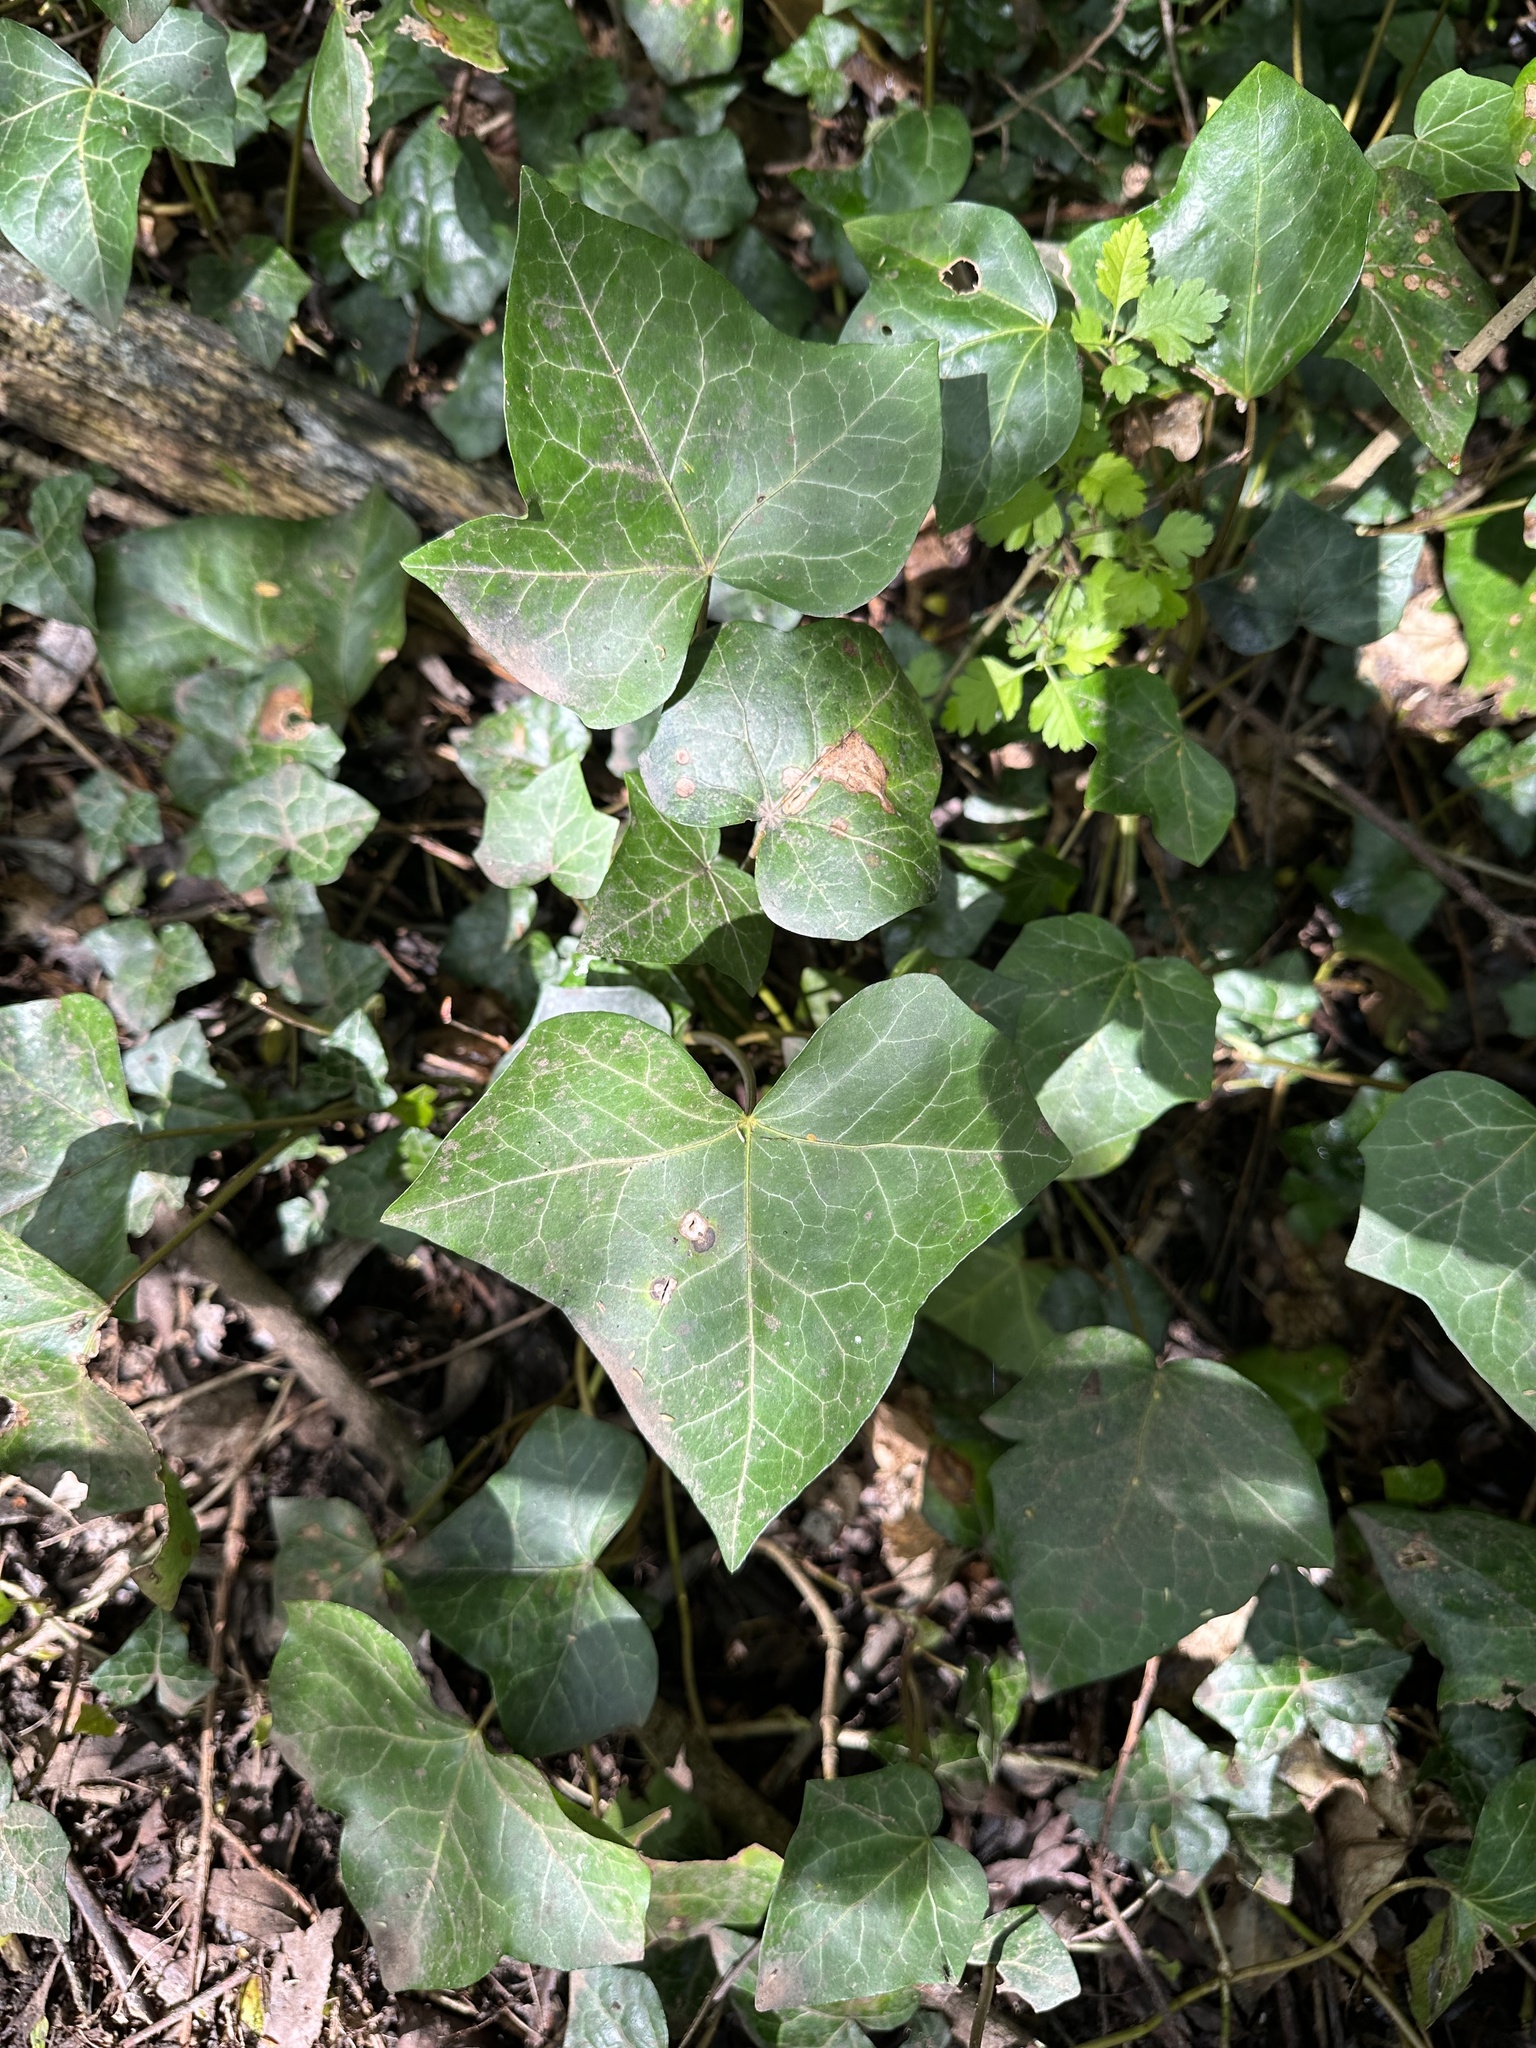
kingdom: Plantae
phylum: Tracheophyta
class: Magnoliopsida
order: Apiales
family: Araliaceae
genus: Hedera
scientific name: Hedera helix
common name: Ivy
